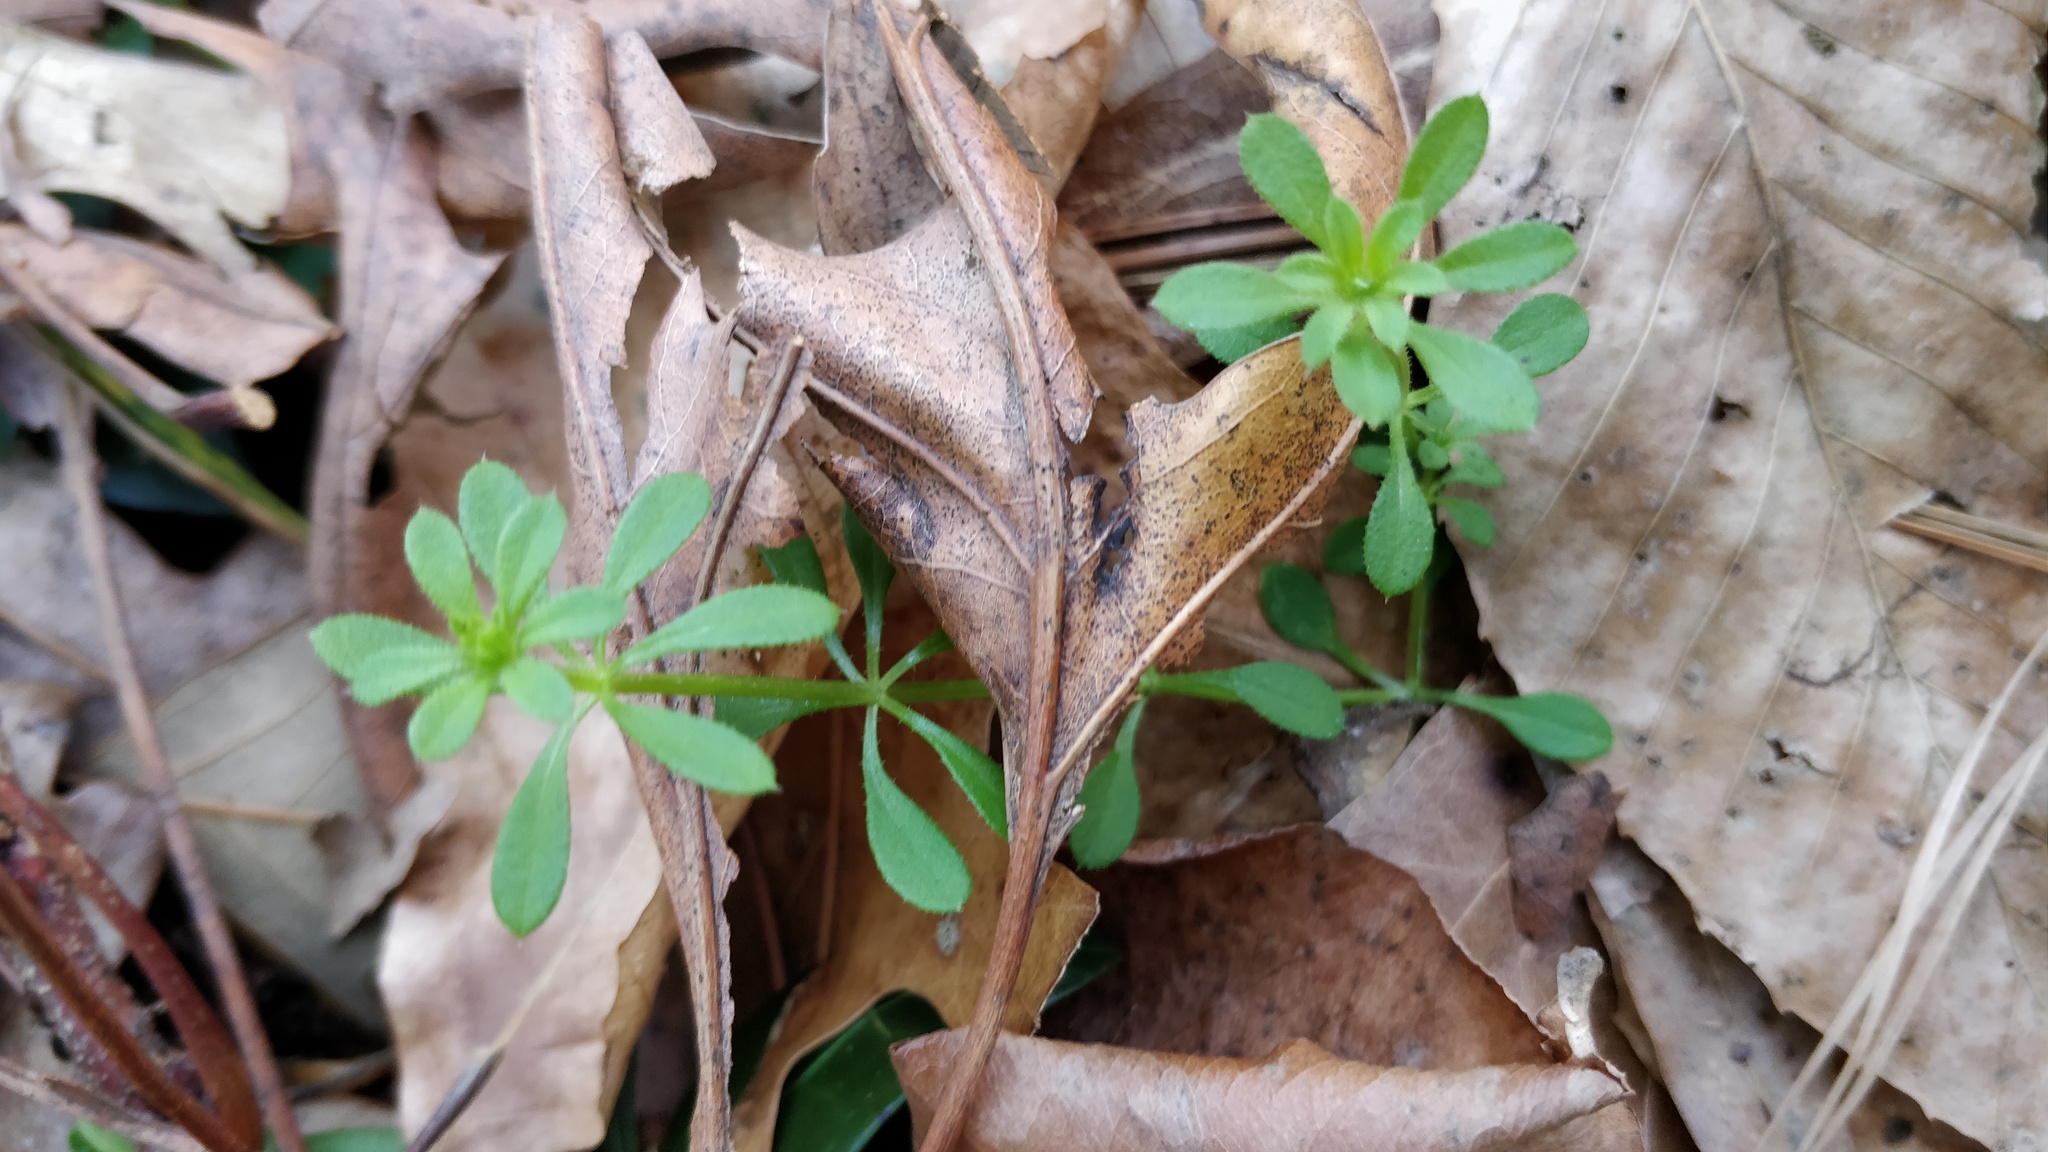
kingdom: Plantae
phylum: Tracheophyta
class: Magnoliopsida
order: Gentianales
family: Rubiaceae
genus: Galium
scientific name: Galium aparine
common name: Cleavers
